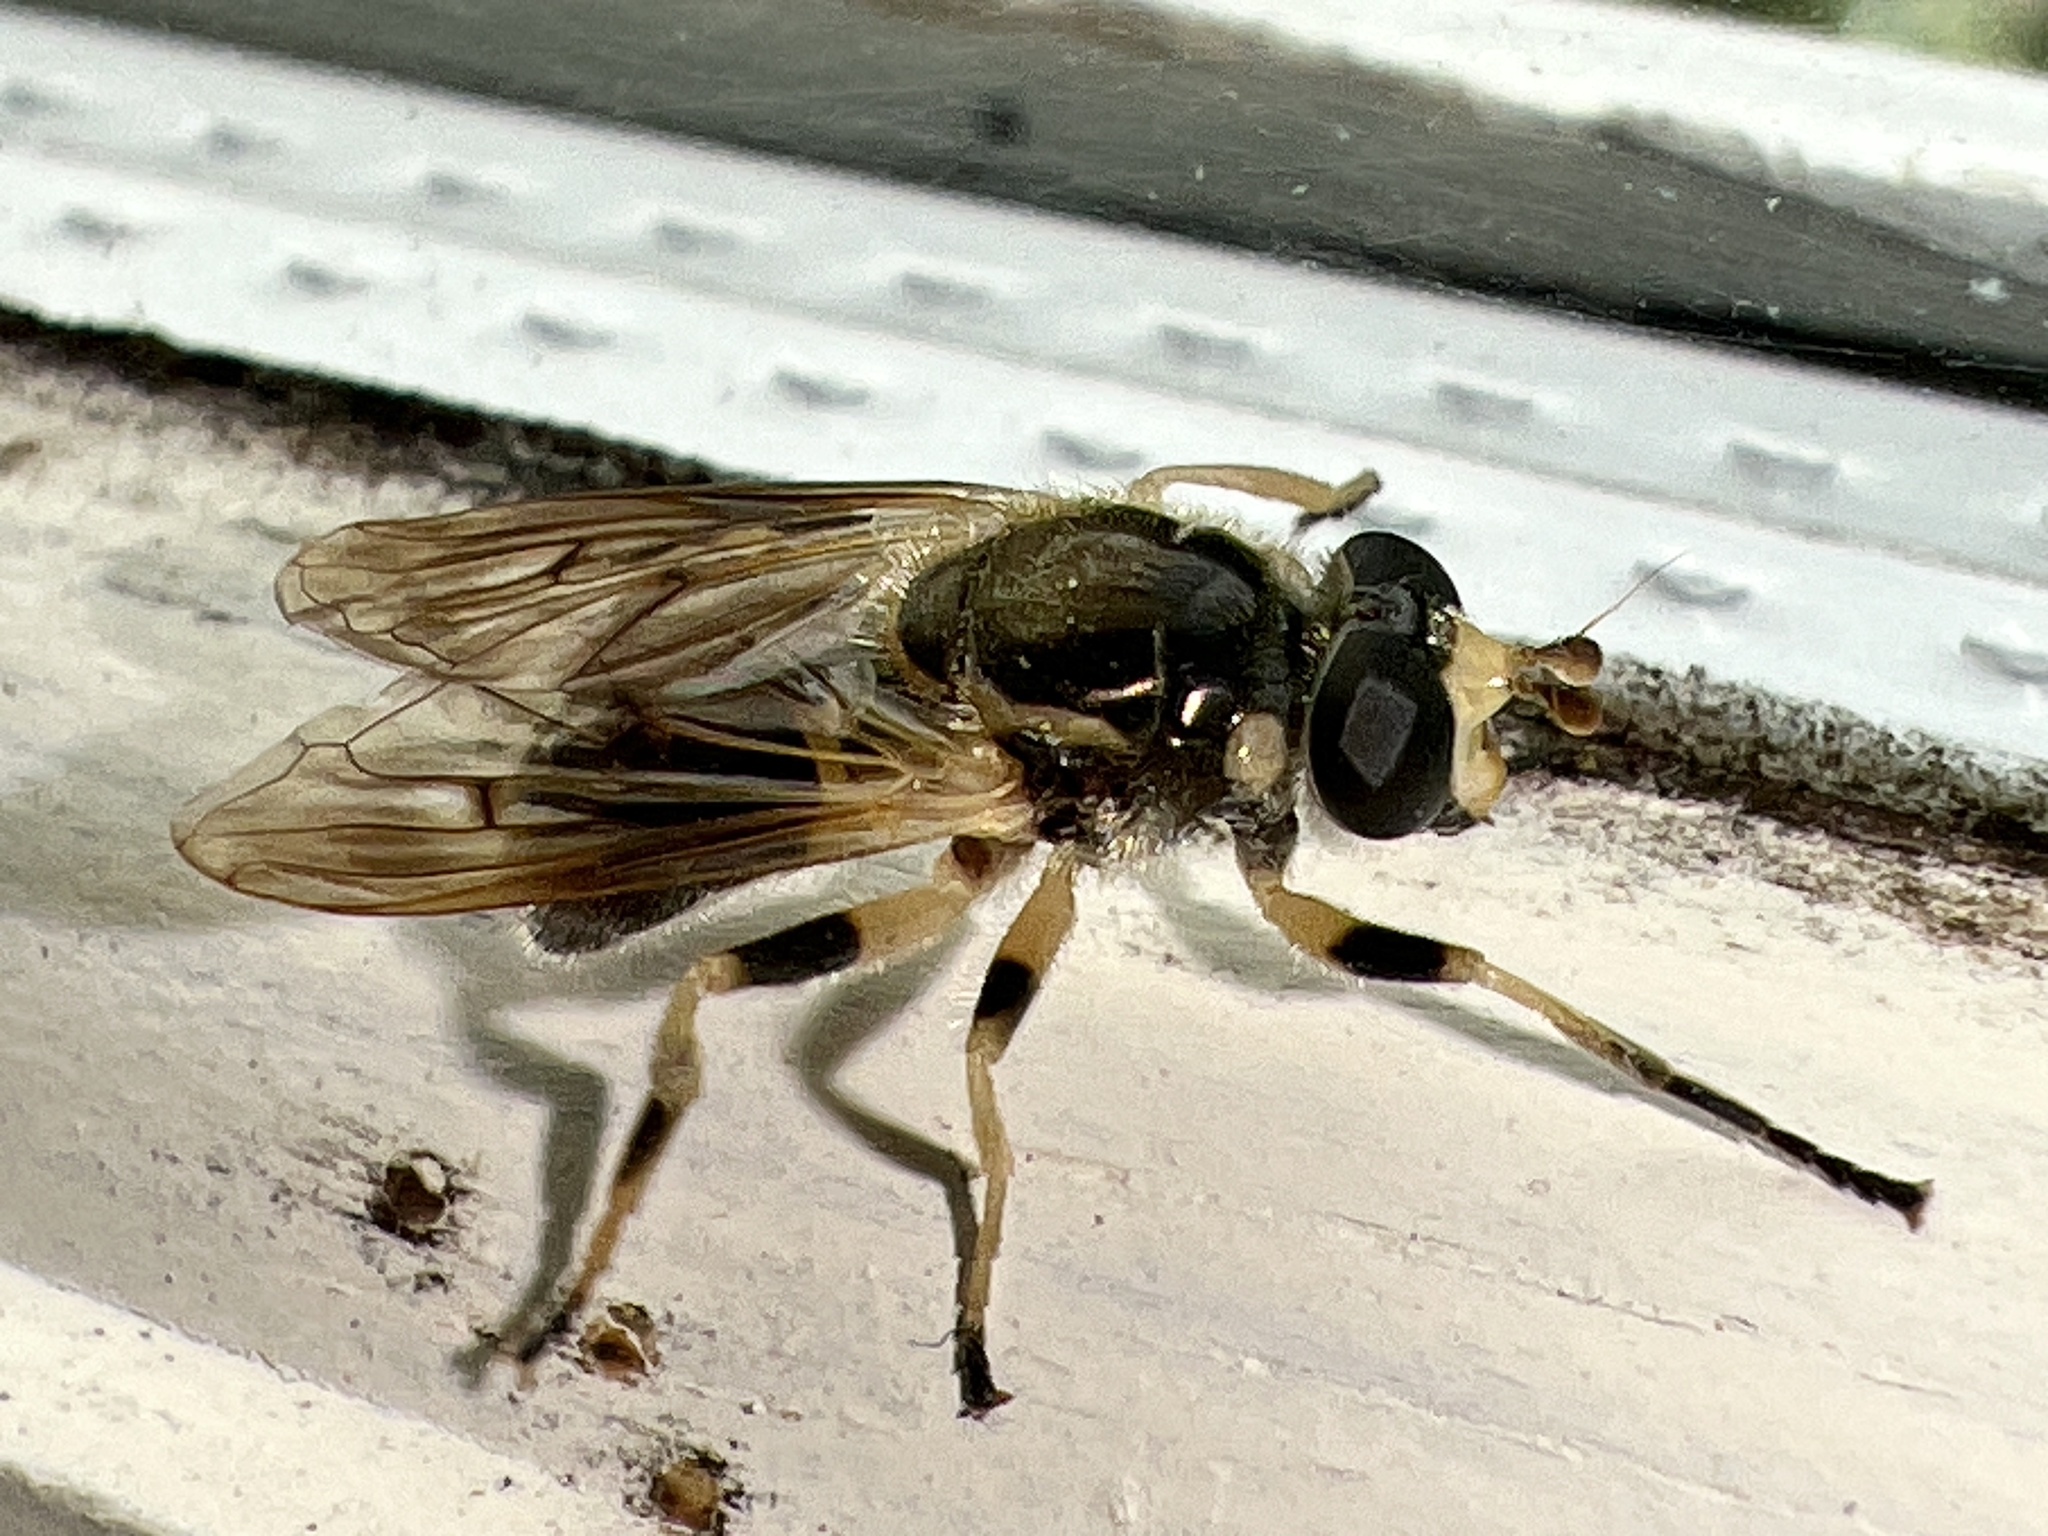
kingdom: Animalia
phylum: Arthropoda
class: Insecta
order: Diptera
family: Syrphidae
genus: Blera
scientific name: Blera pictipes
